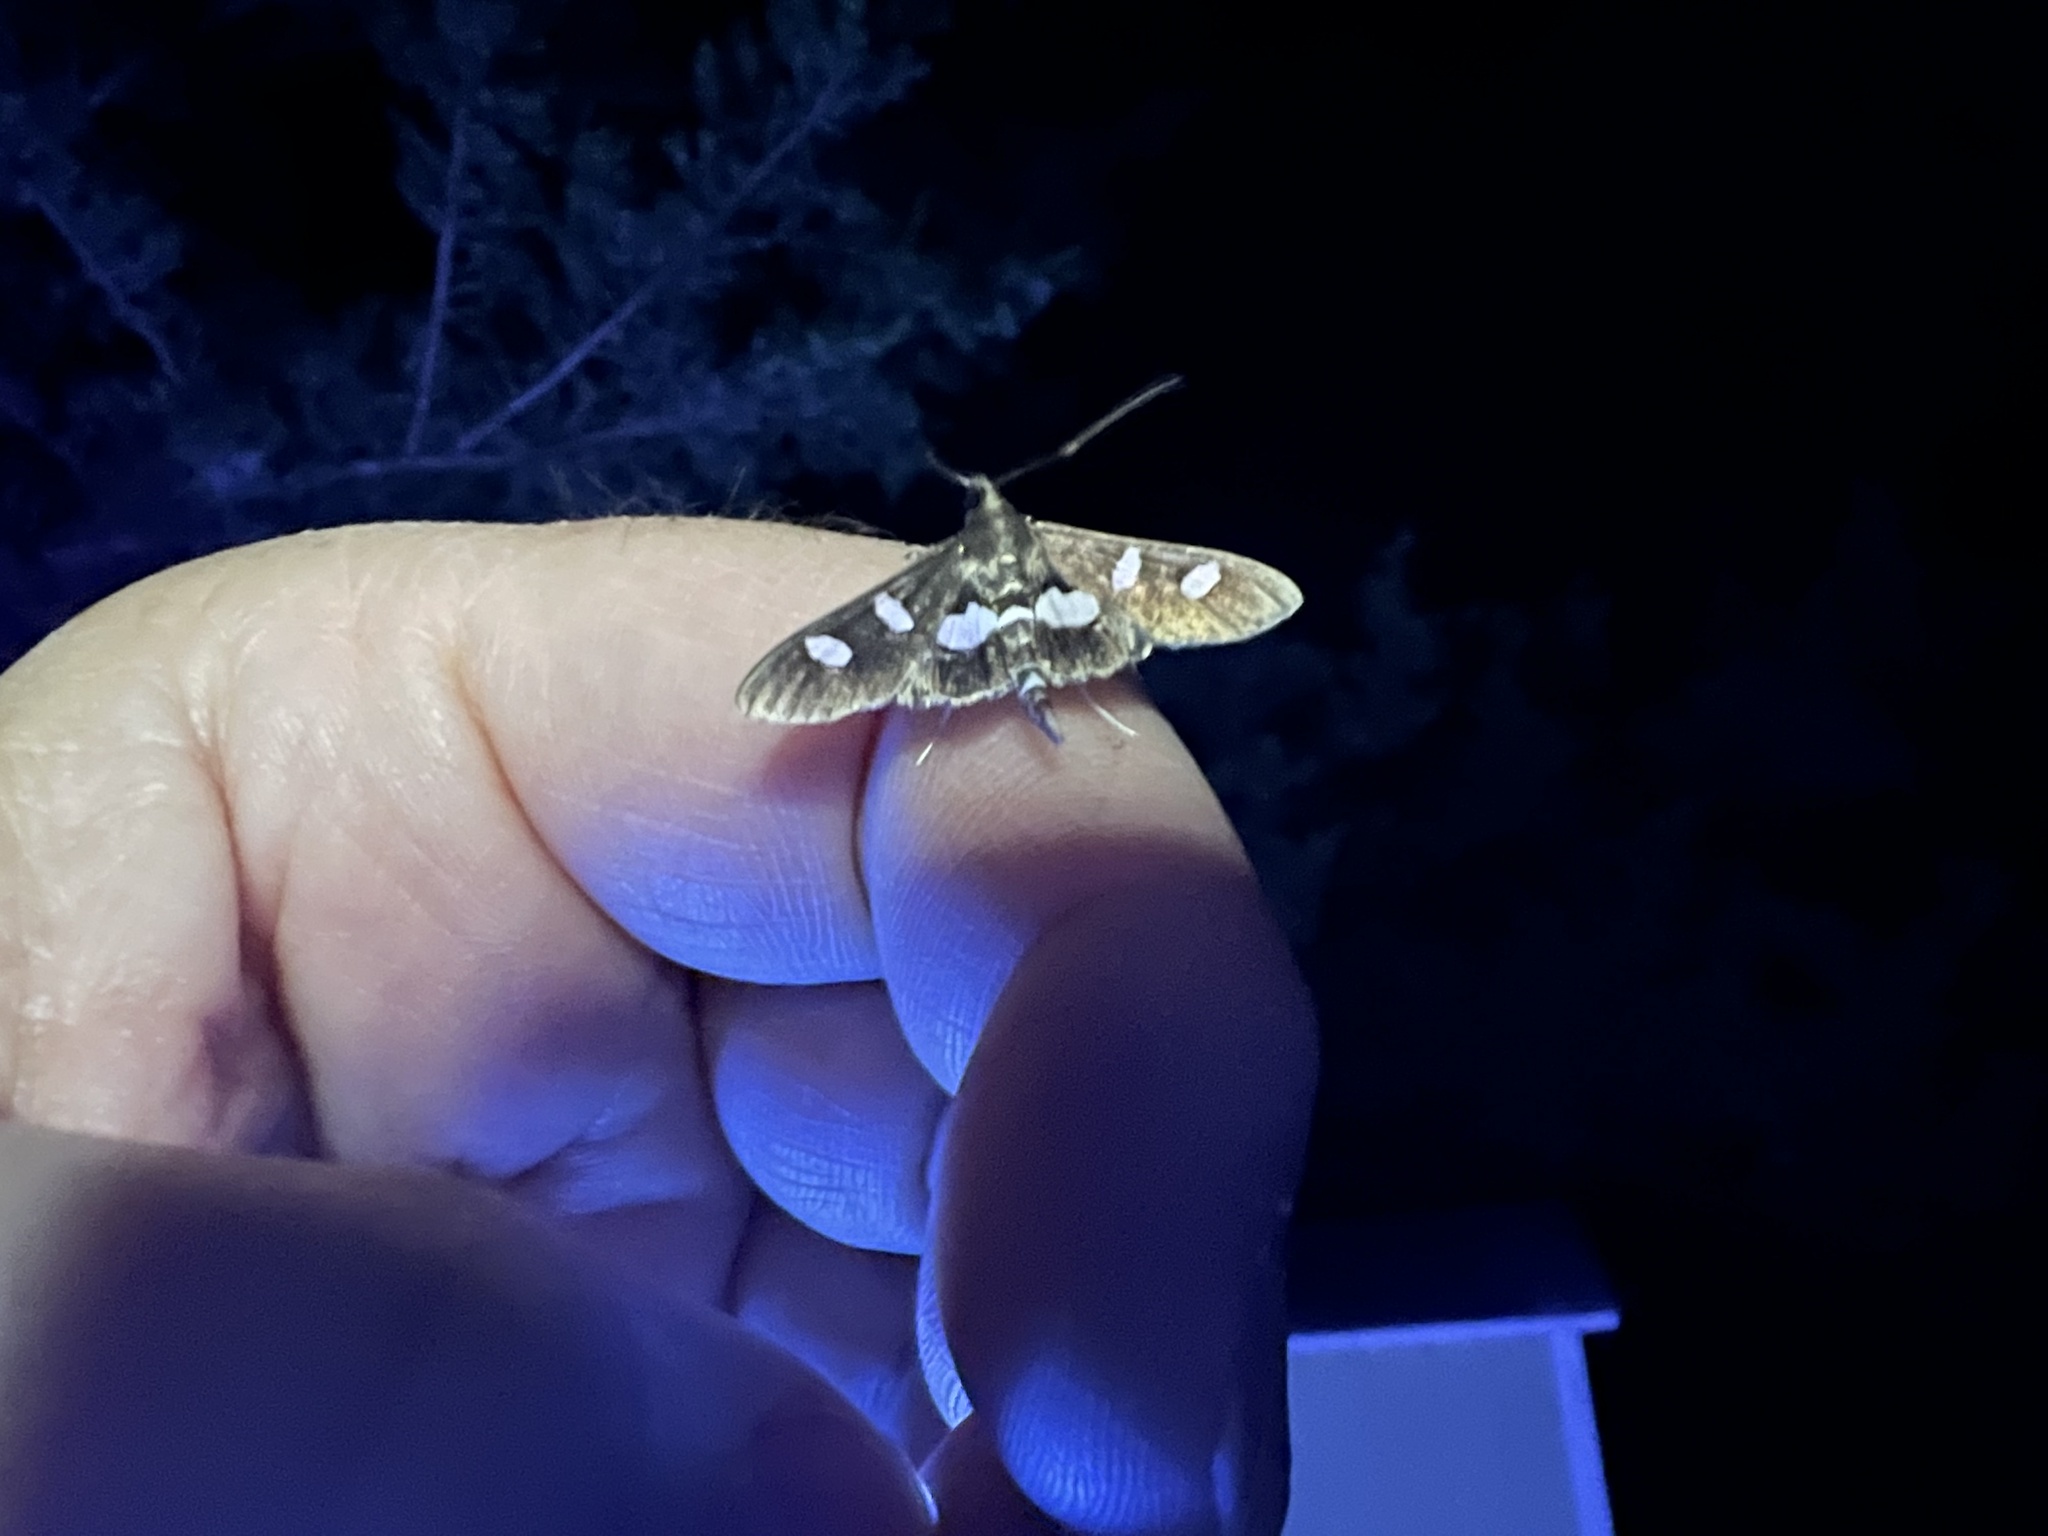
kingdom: Animalia
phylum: Arthropoda
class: Insecta
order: Lepidoptera
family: Crambidae
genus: Desmia
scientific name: Desmia
